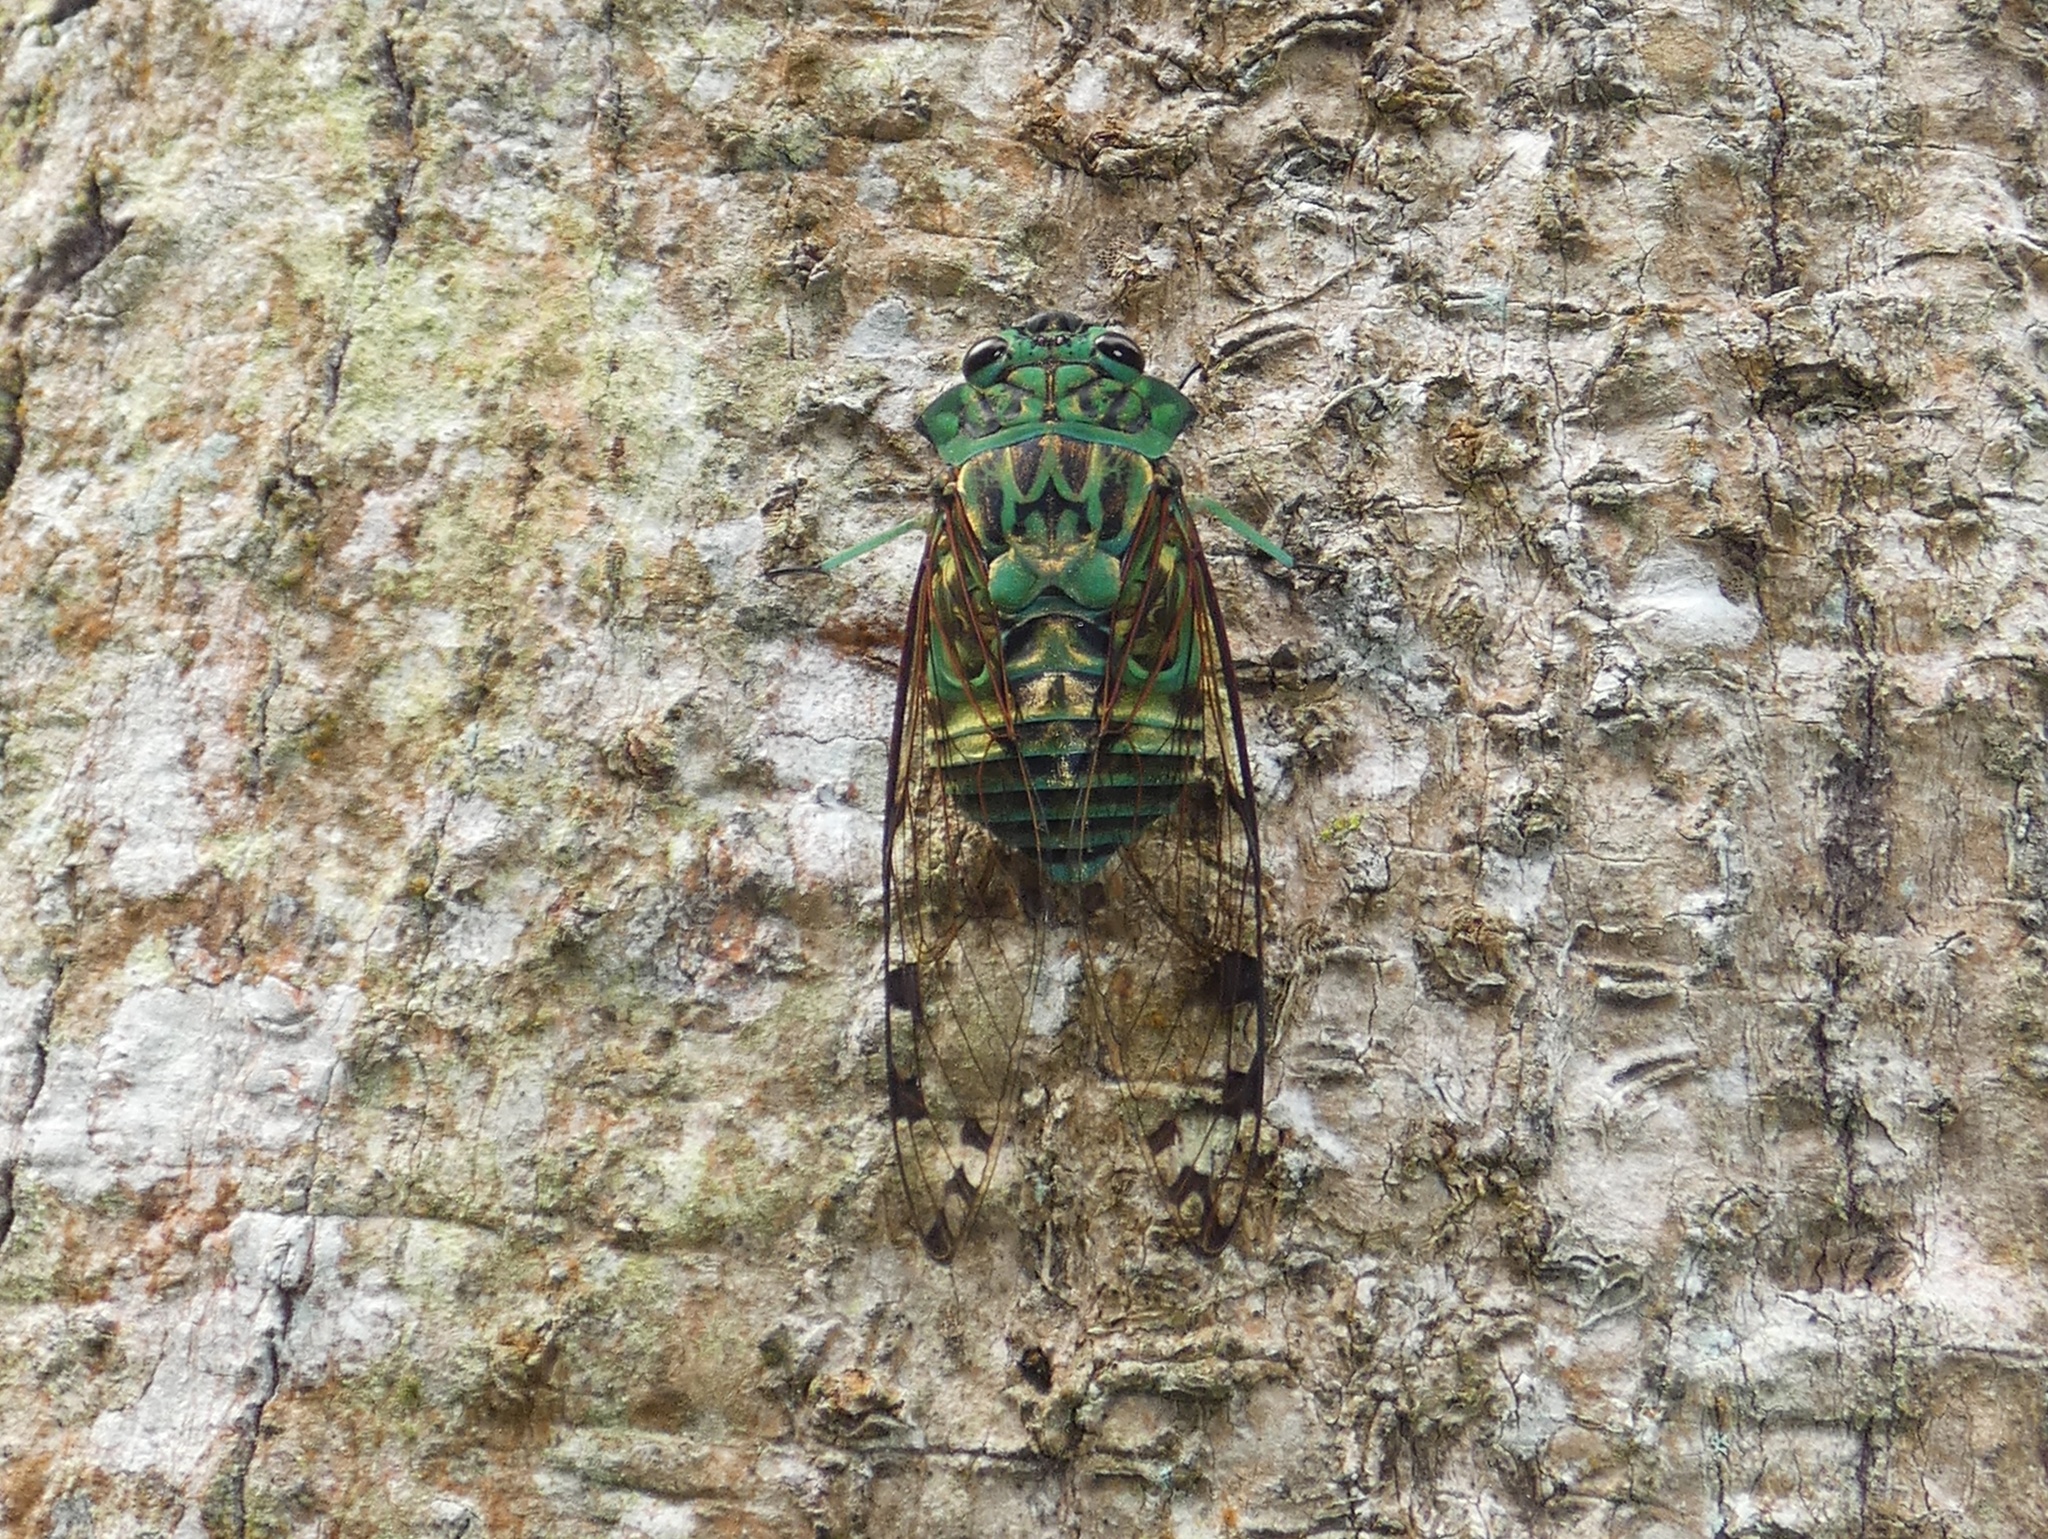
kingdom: Animalia
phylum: Arthropoda
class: Insecta
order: Hemiptera
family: Cicadidae
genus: Zammara
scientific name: Zammara smaragdina
